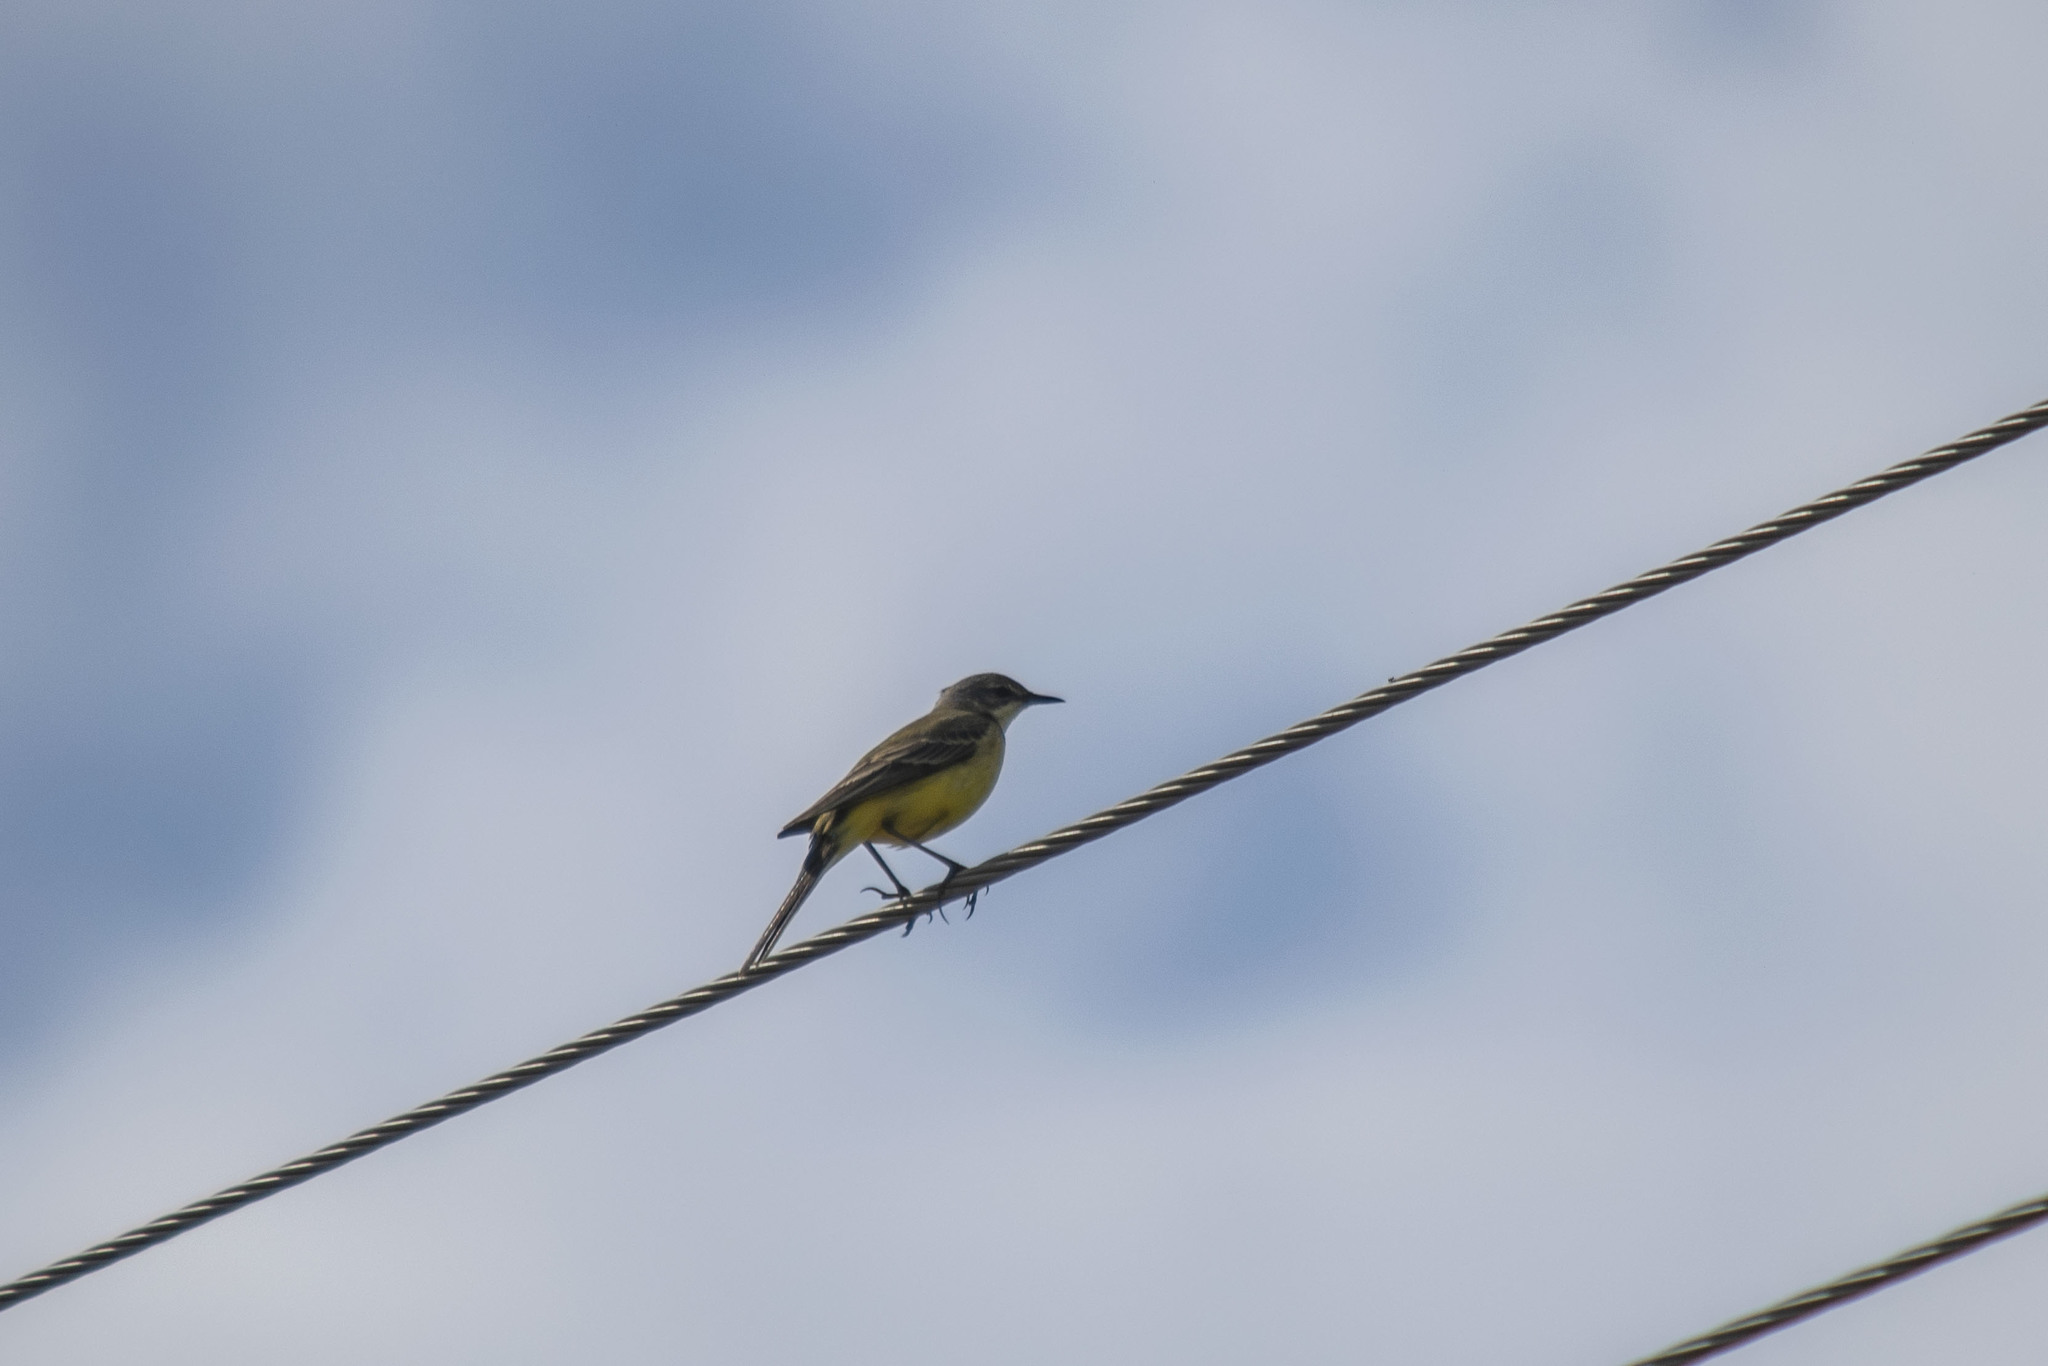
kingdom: Animalia
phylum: Chordata
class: Aves
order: Passeriformes
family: Motacillidae
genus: Motacilla
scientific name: Motacilla flava
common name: Western yellow wagtail
